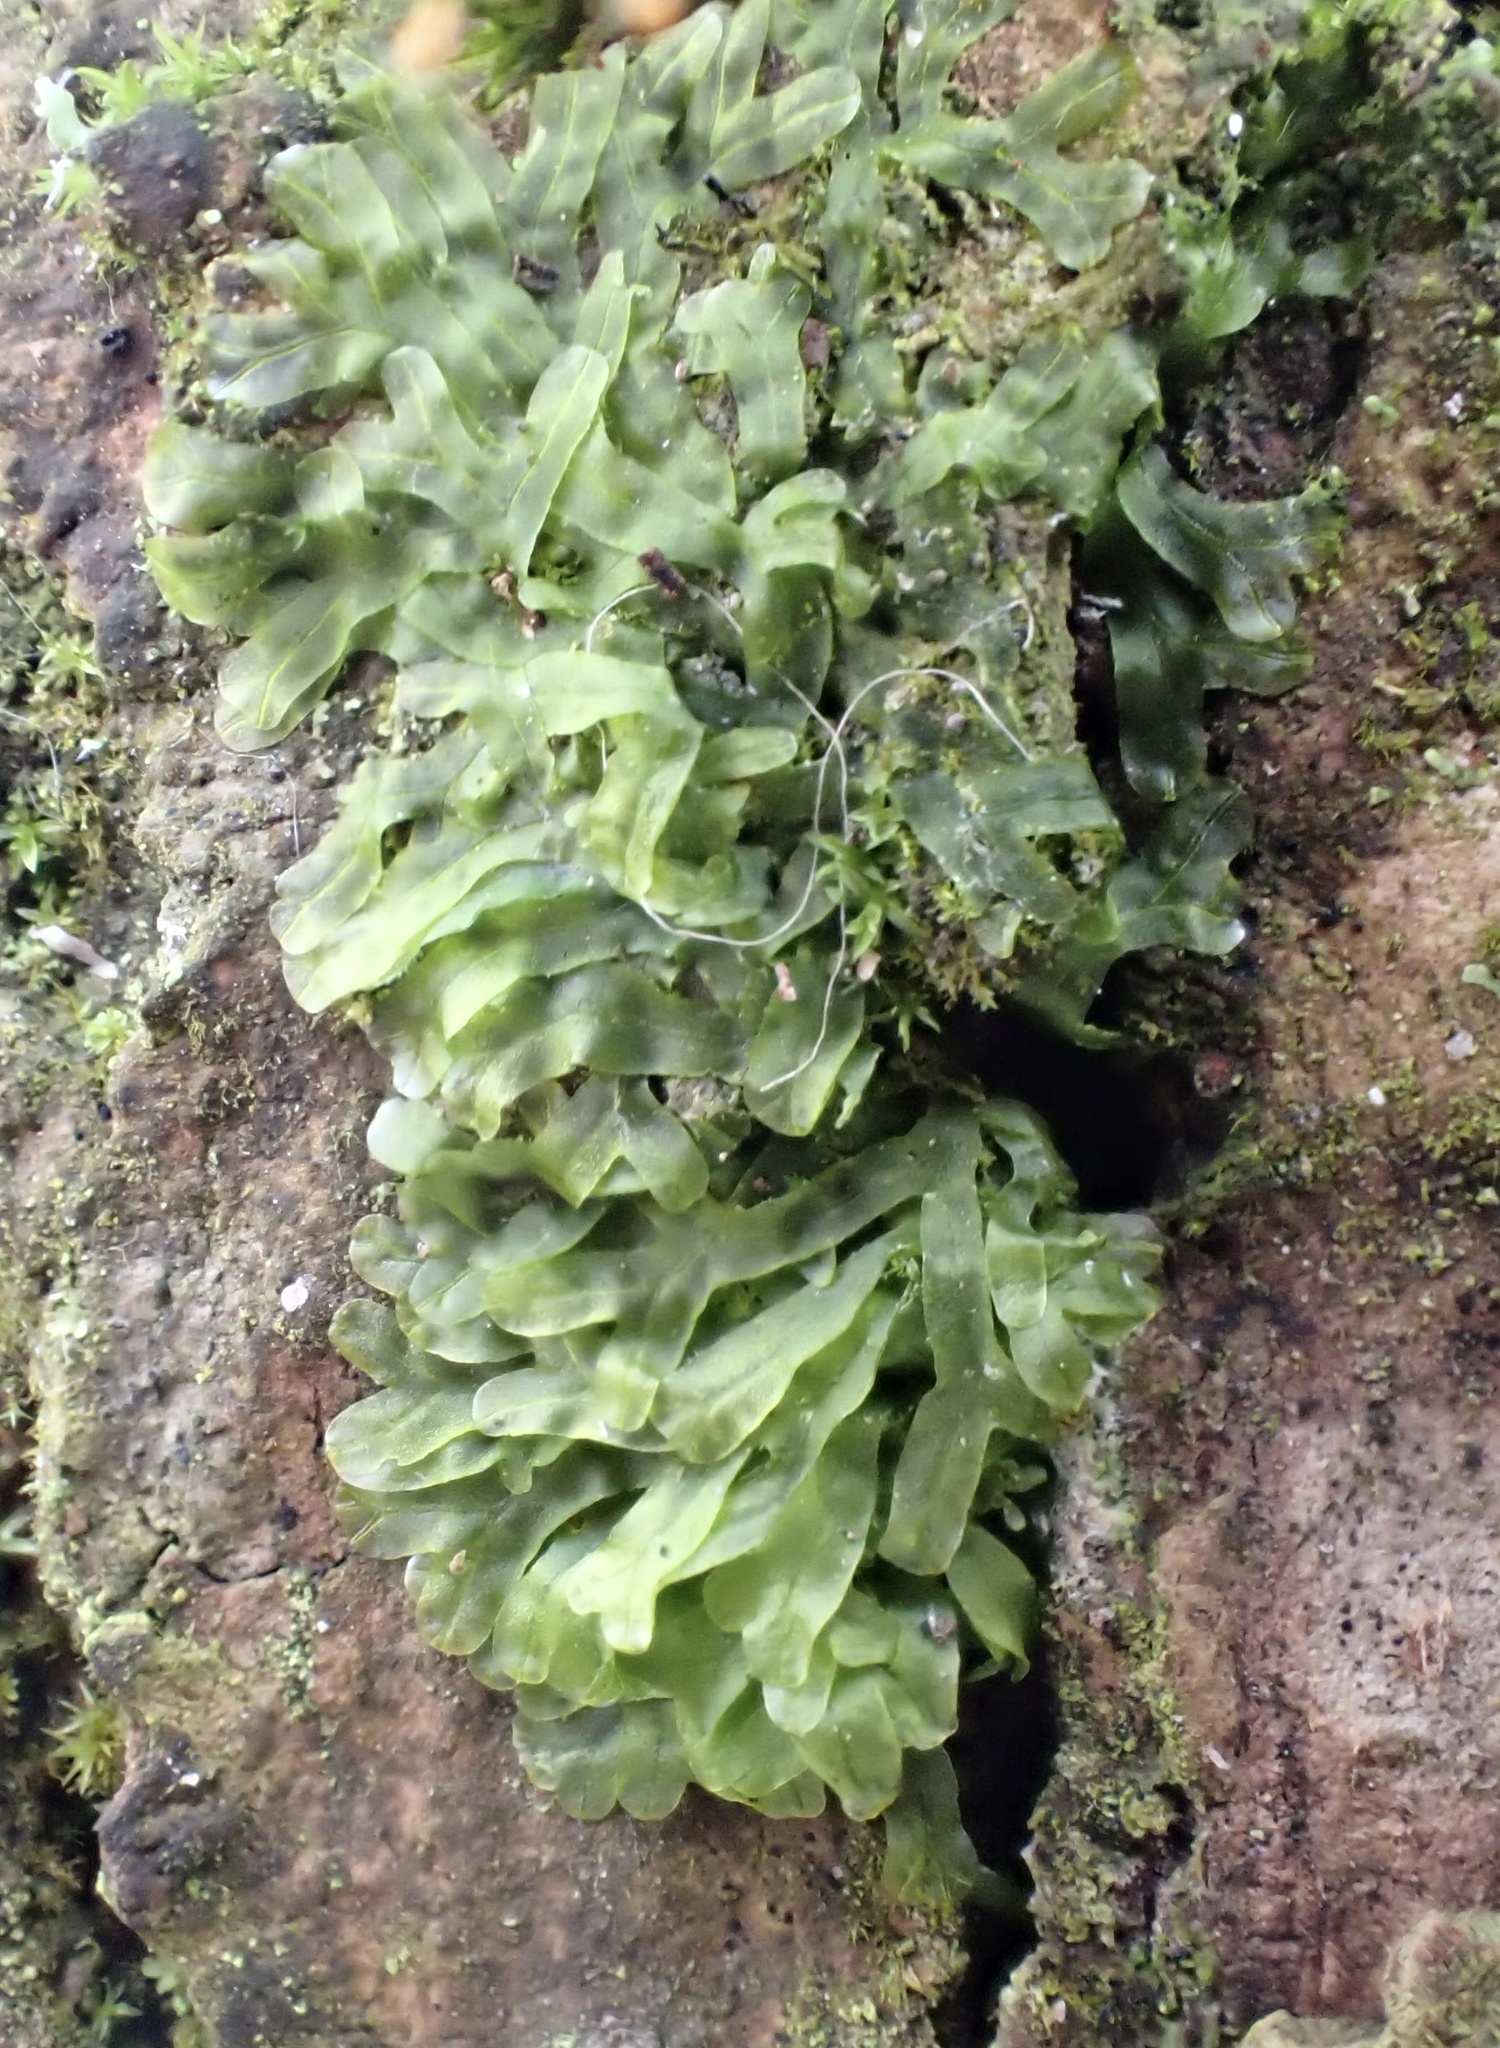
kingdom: Plantae
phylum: Marchantiophyta
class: Jungermanniopsida
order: Metzgeriales
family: Metzgeriaceae
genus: Metzgeria
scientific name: Metzgeria furcata
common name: Forked veilwort
